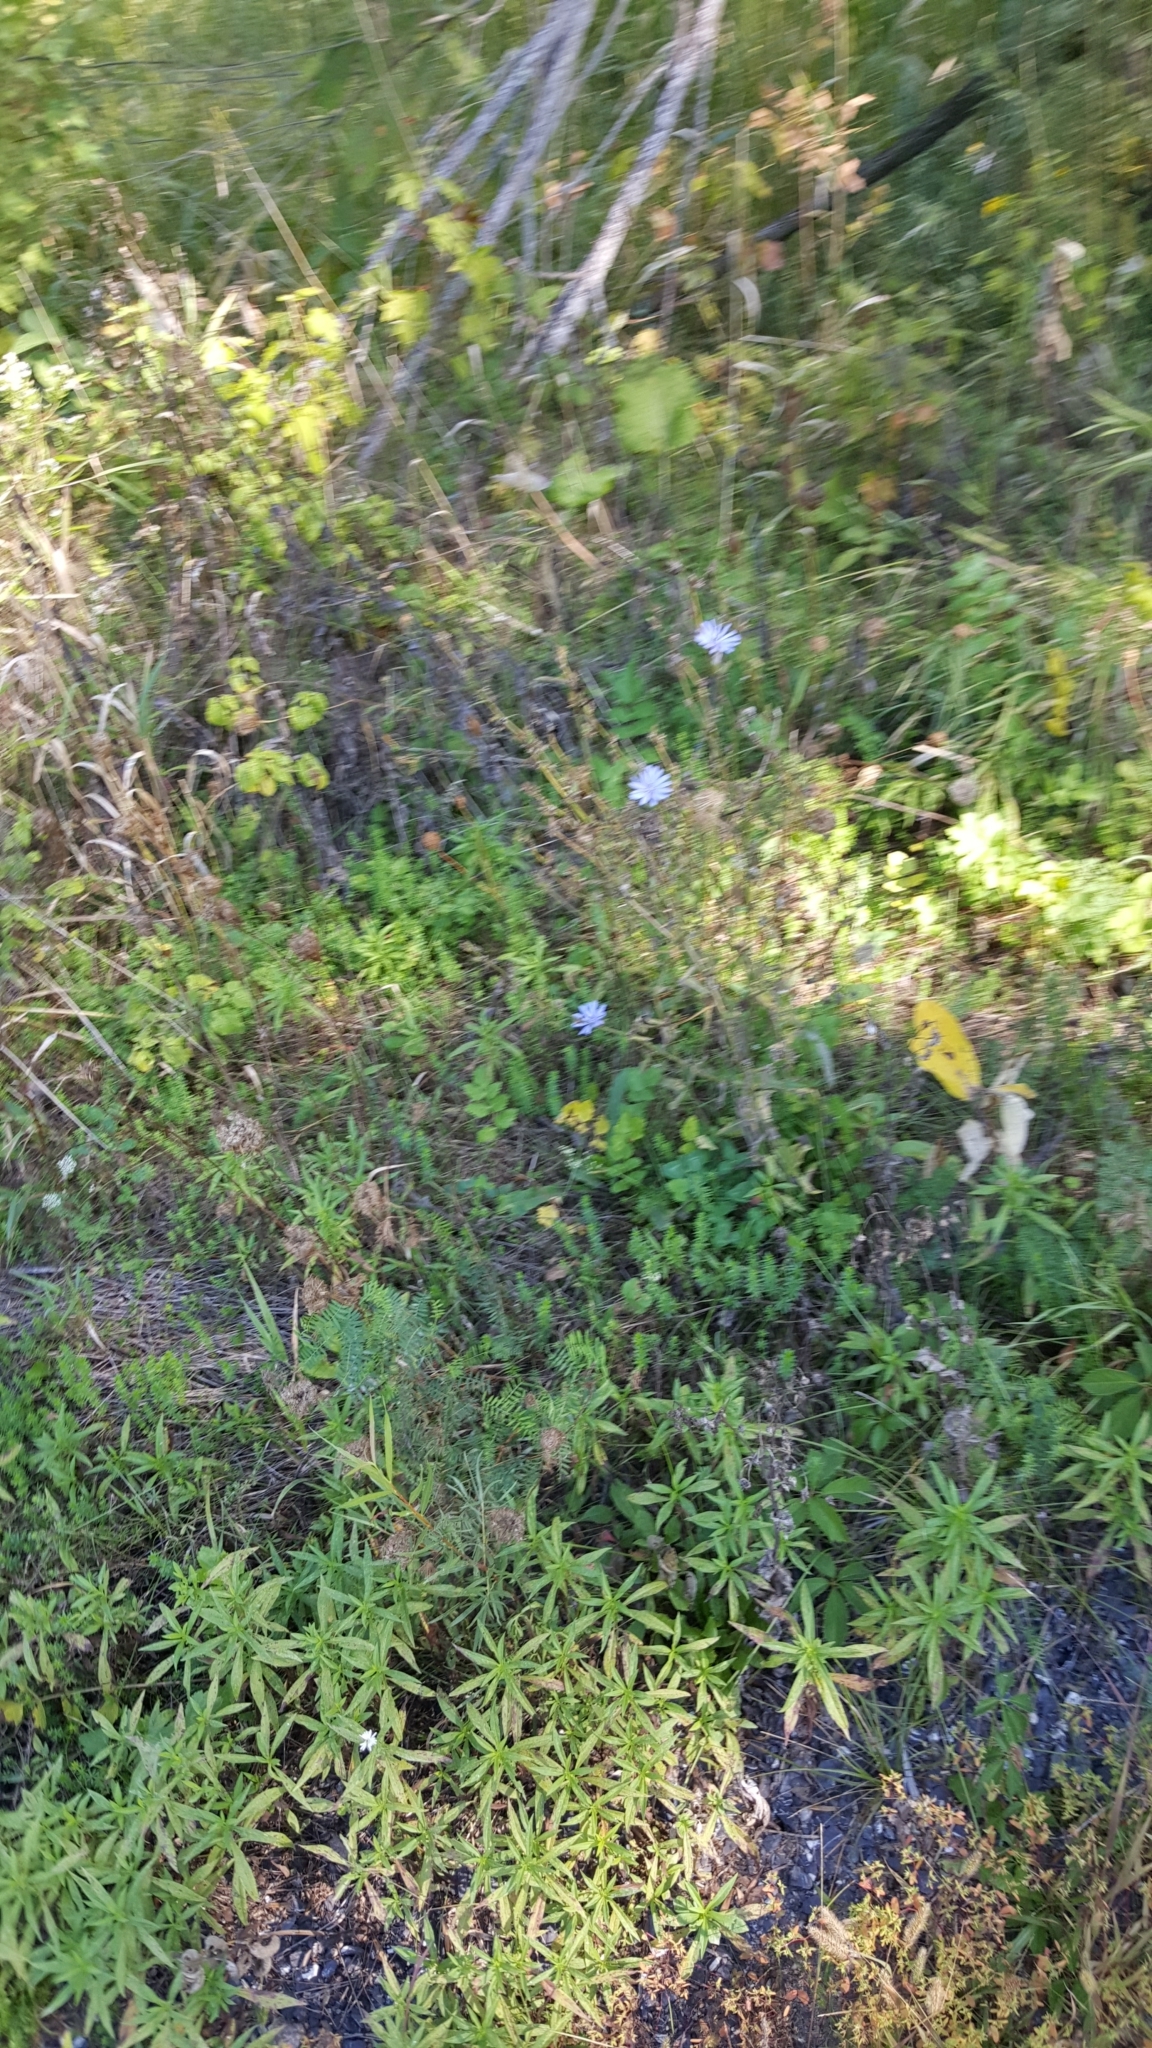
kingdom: Plantae
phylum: Tracheophyta
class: Magnoliopsida
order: Asterales
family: Asteraceae
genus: Cichorium
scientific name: Cichorium intybus
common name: Chicory
